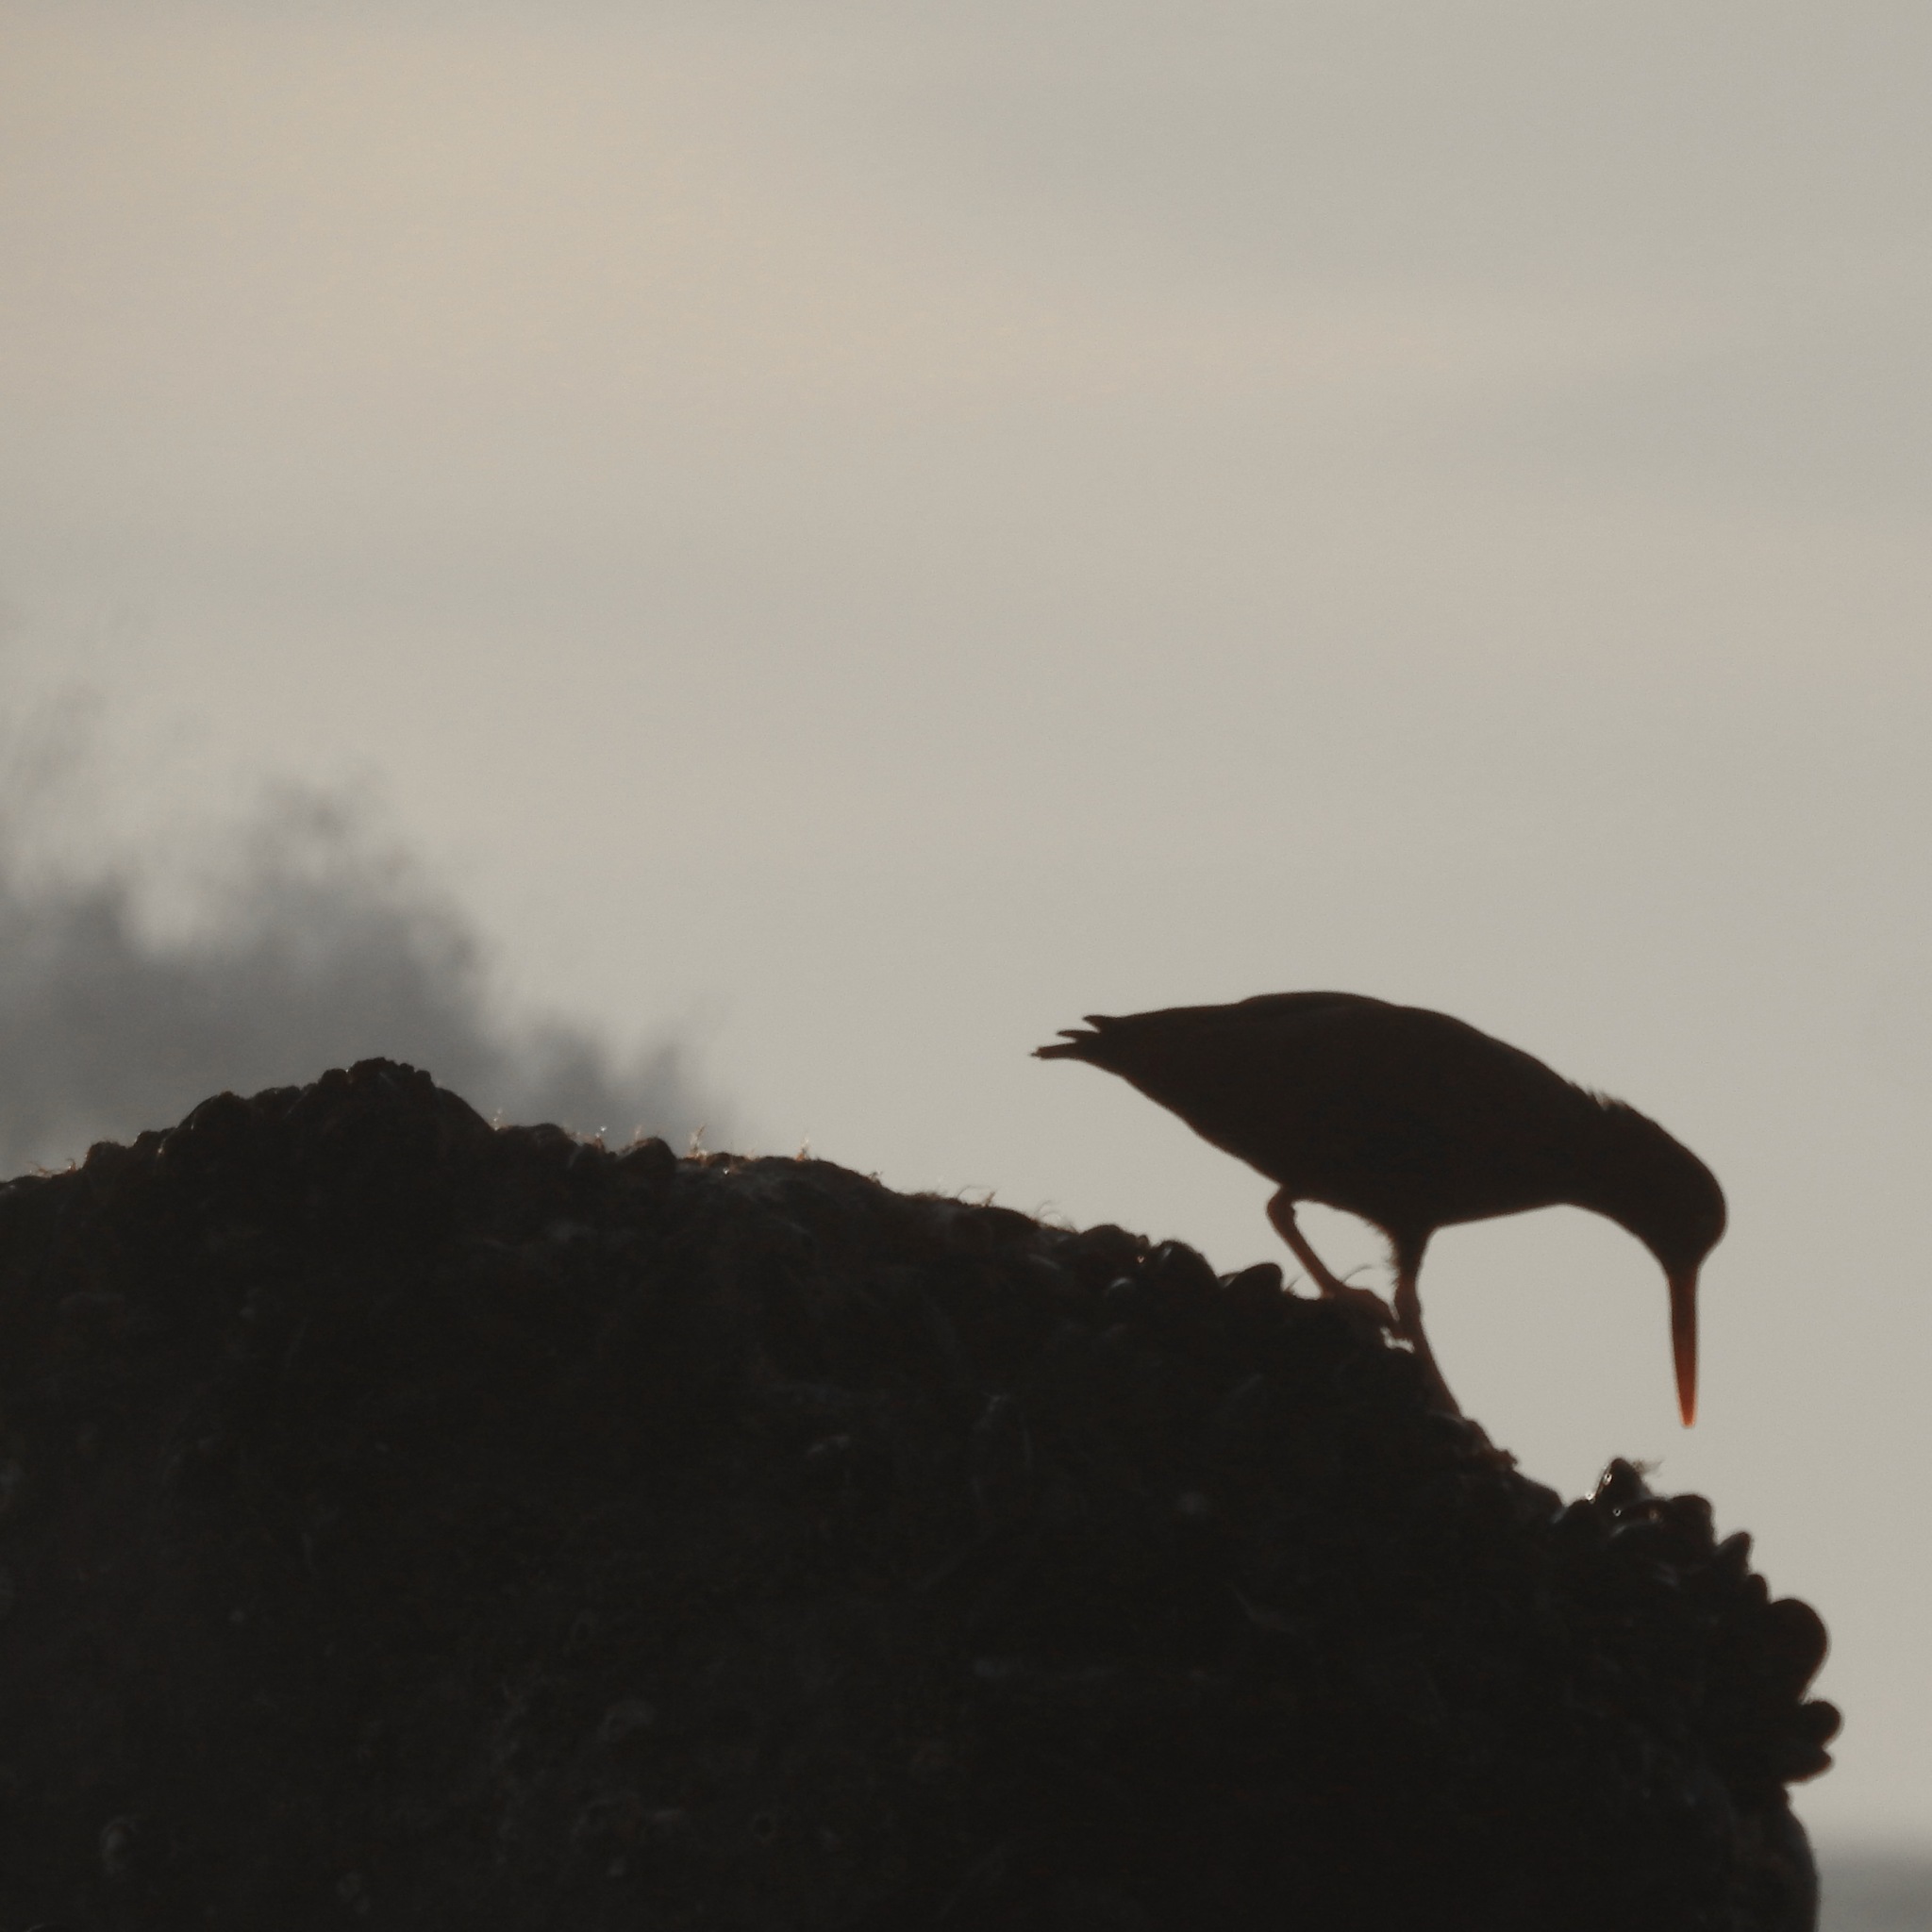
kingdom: Animalia
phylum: Chordata
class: Aves
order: Charadriiformes
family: Haematopodidae
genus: Haematopus
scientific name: Haematopus bachmani
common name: Black oystercatcher
